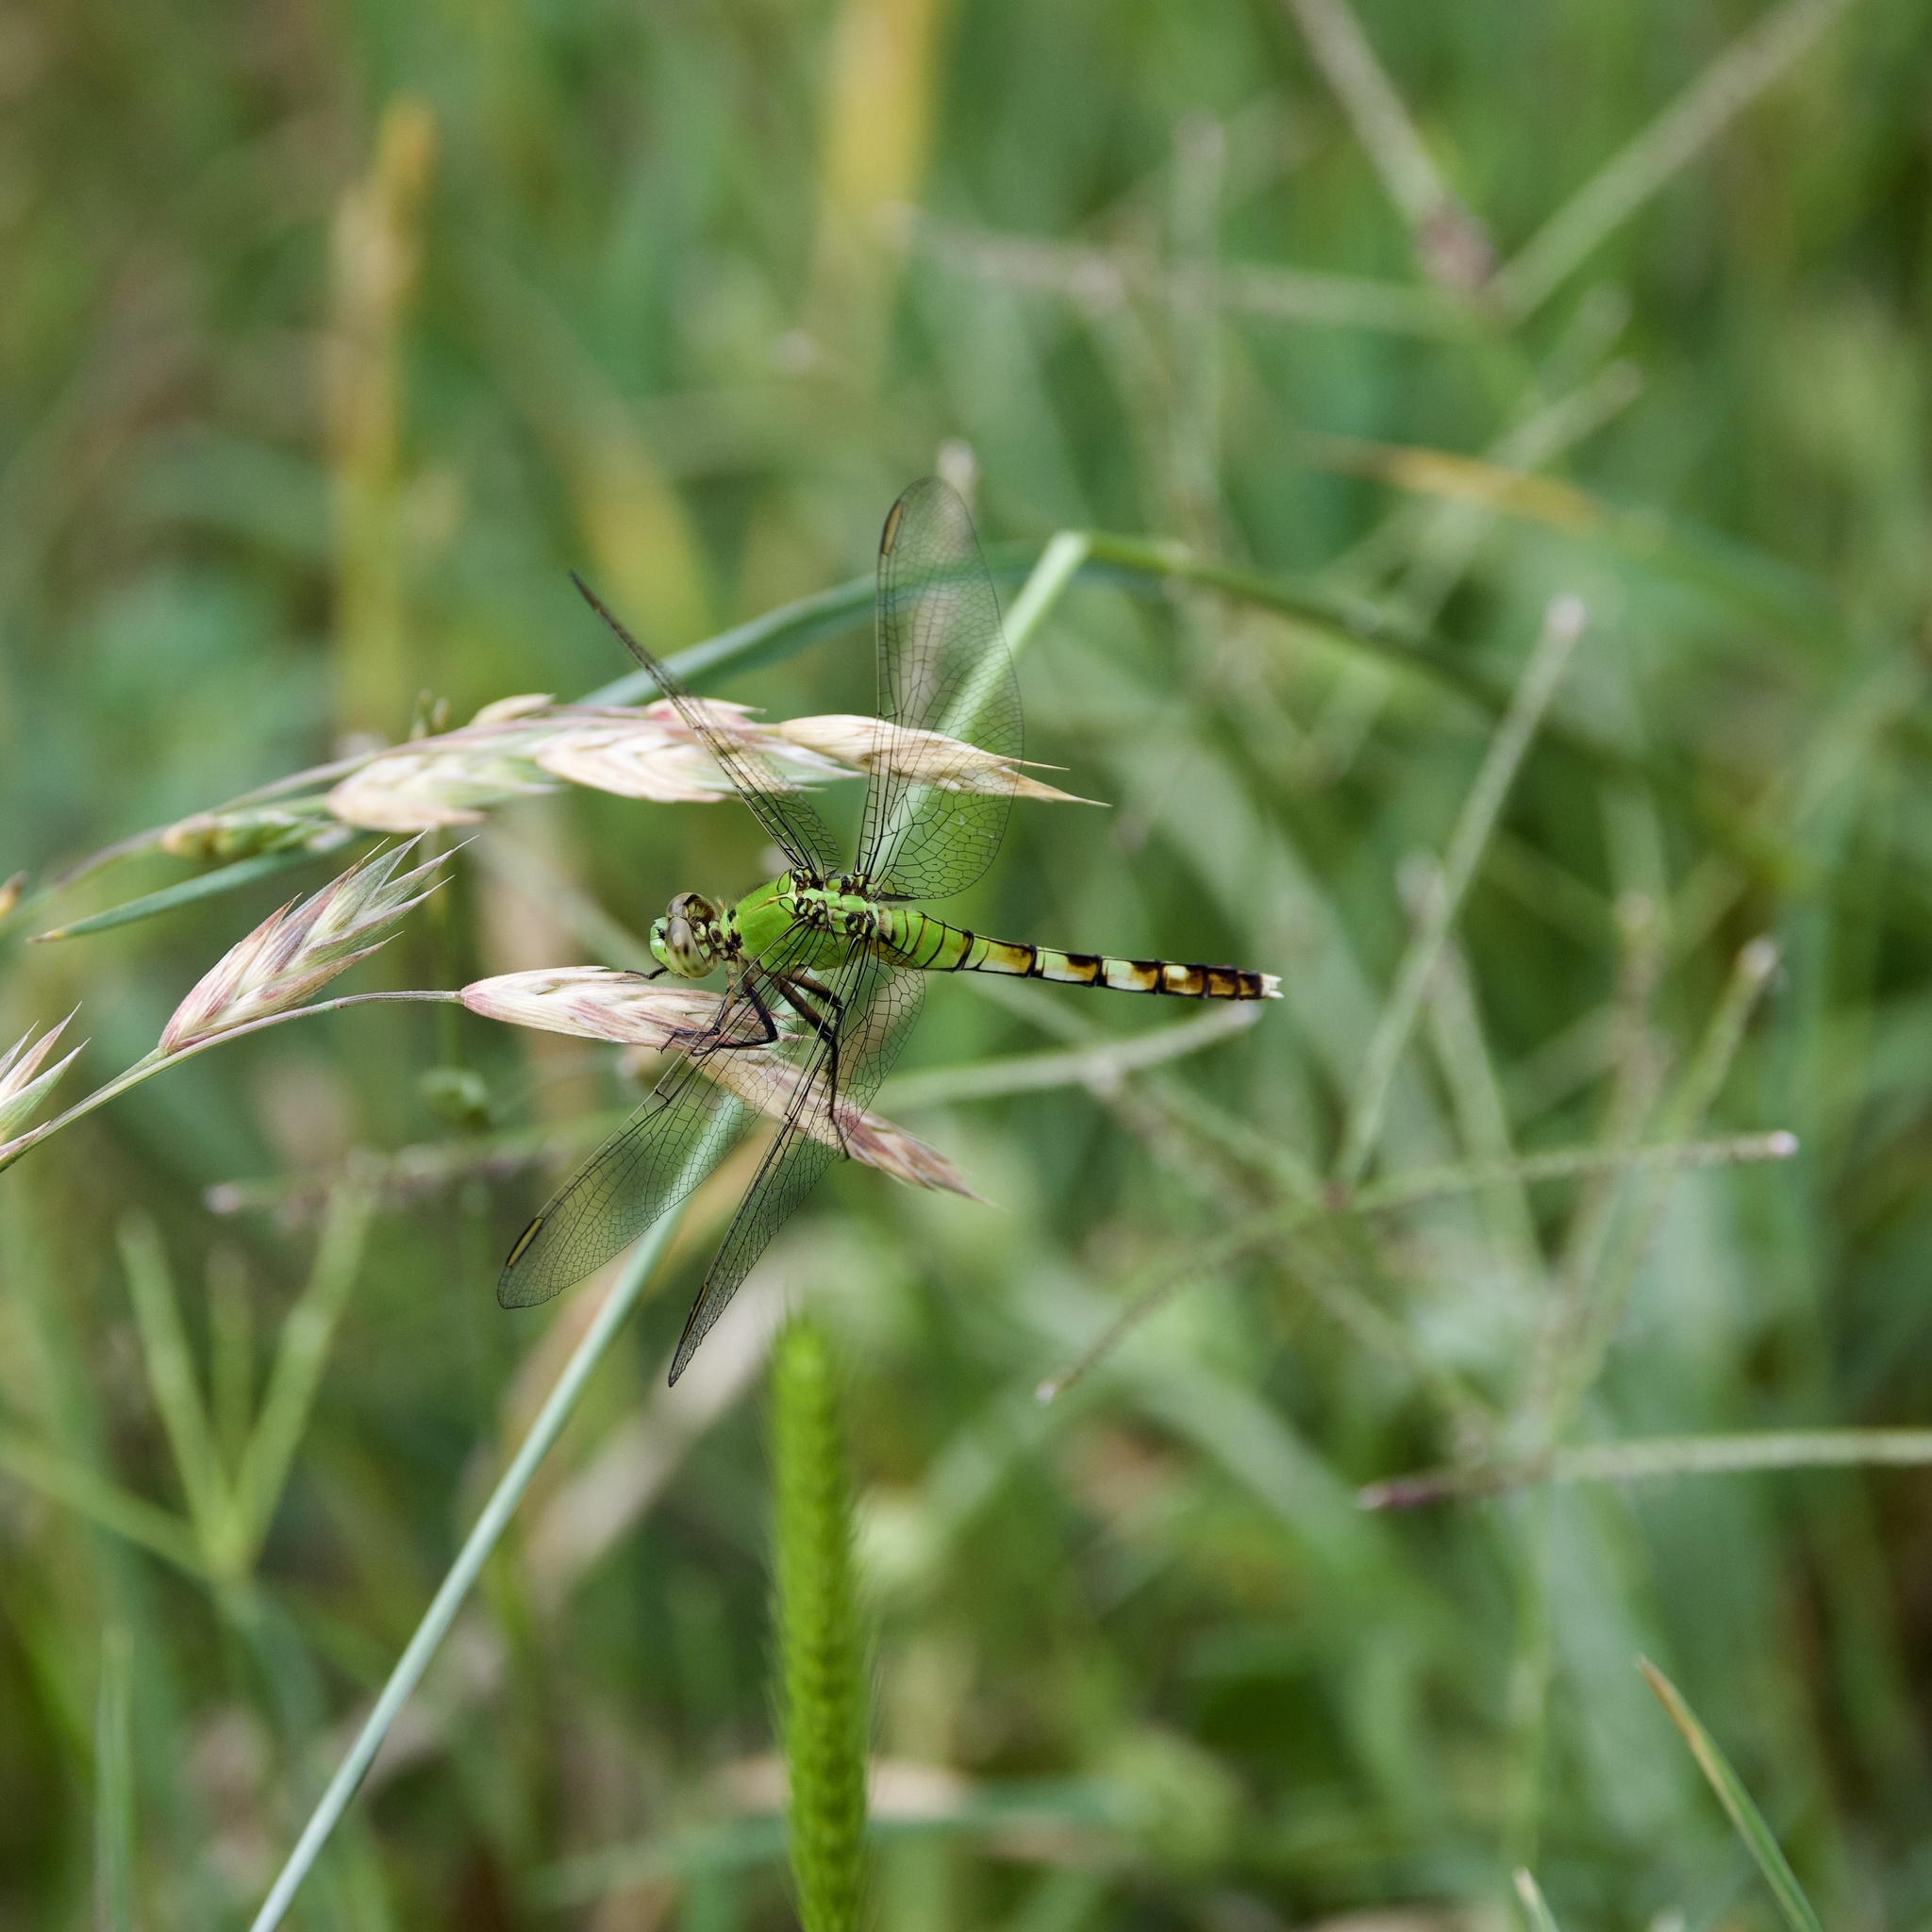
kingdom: Animalia
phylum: Arthropoda
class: Insecta
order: Odonata
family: Libellulidae
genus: Erythemis
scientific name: Erythemis simplicicollis
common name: Eastern pondhawk
